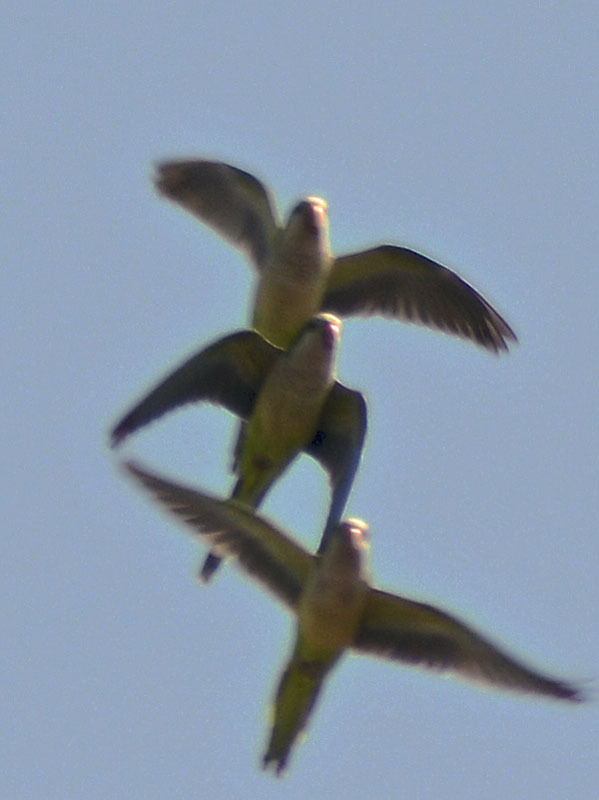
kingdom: Animalia
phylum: Chordata
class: Aves
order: Psittaciformes
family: Psittacidae
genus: Myiopsitta
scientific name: Myiopsitta monachus
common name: Monk parakeet
